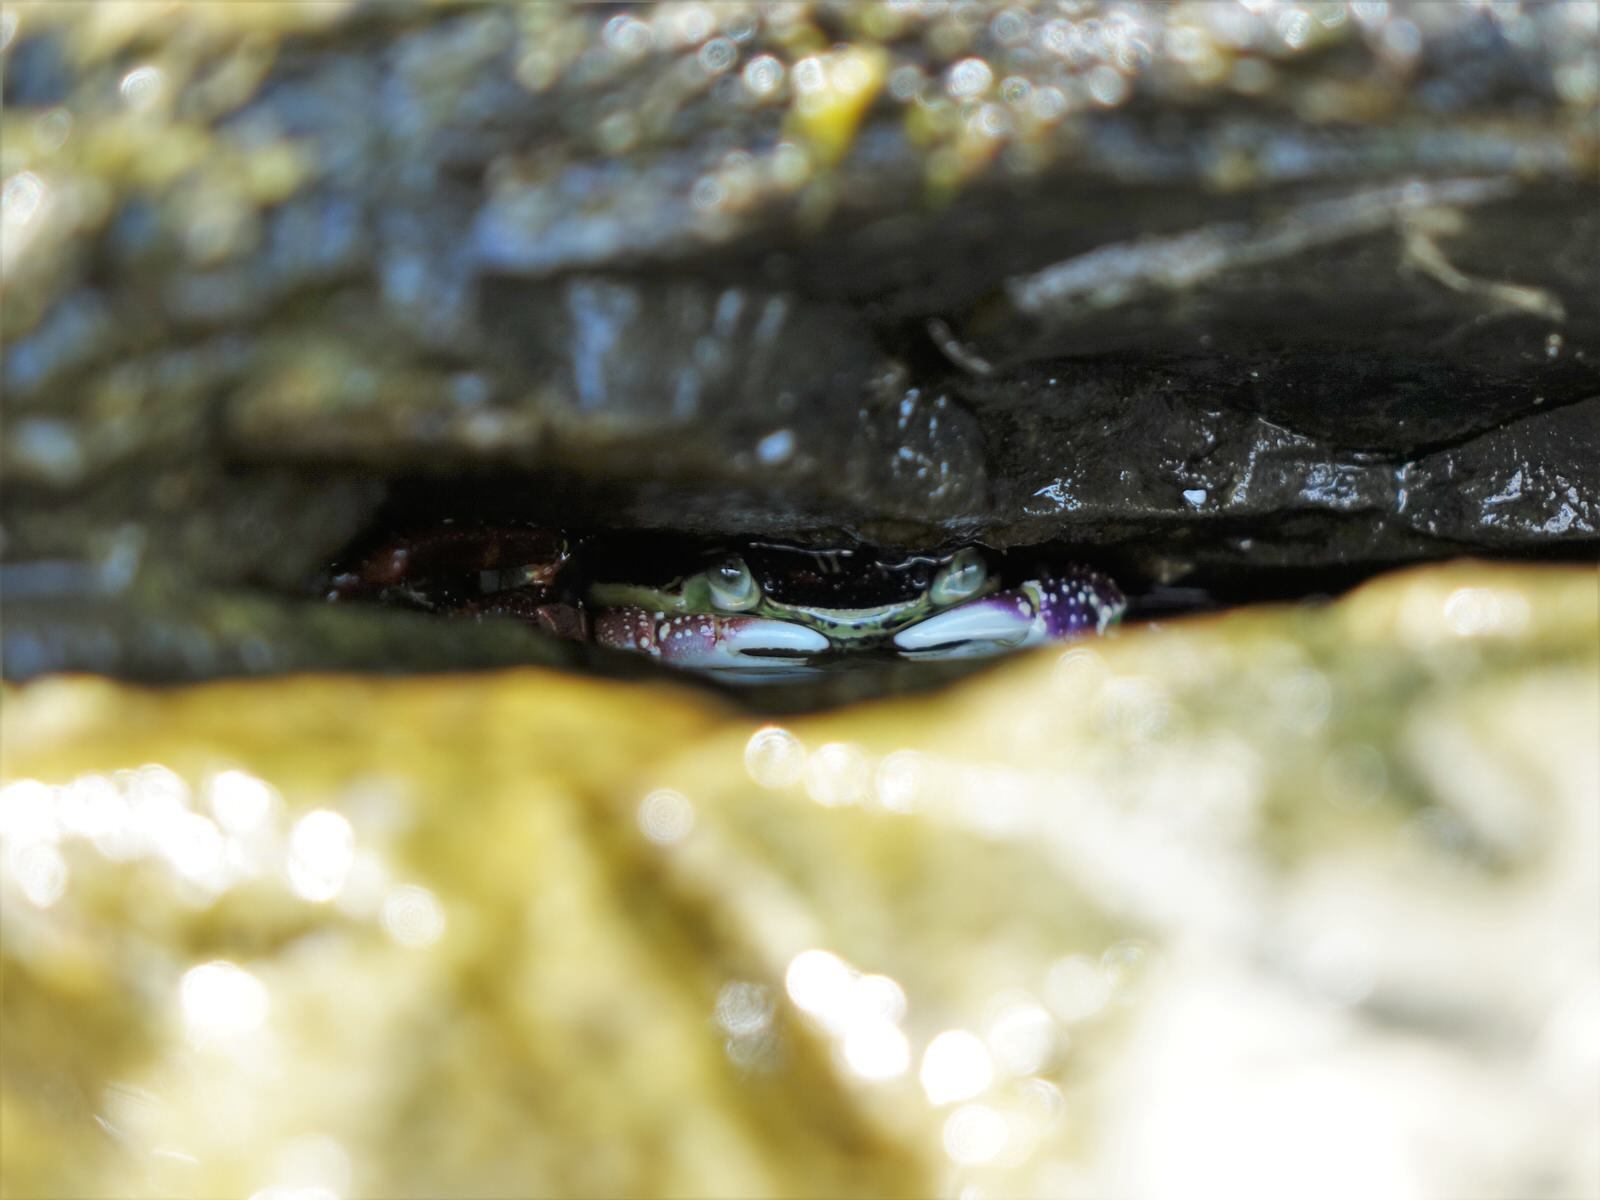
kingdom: Animalia
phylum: Arthropoda
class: Malacostraca
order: Decapoda
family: Grapsidae
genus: Leptograpsus
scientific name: Leptograpsus variegatus
